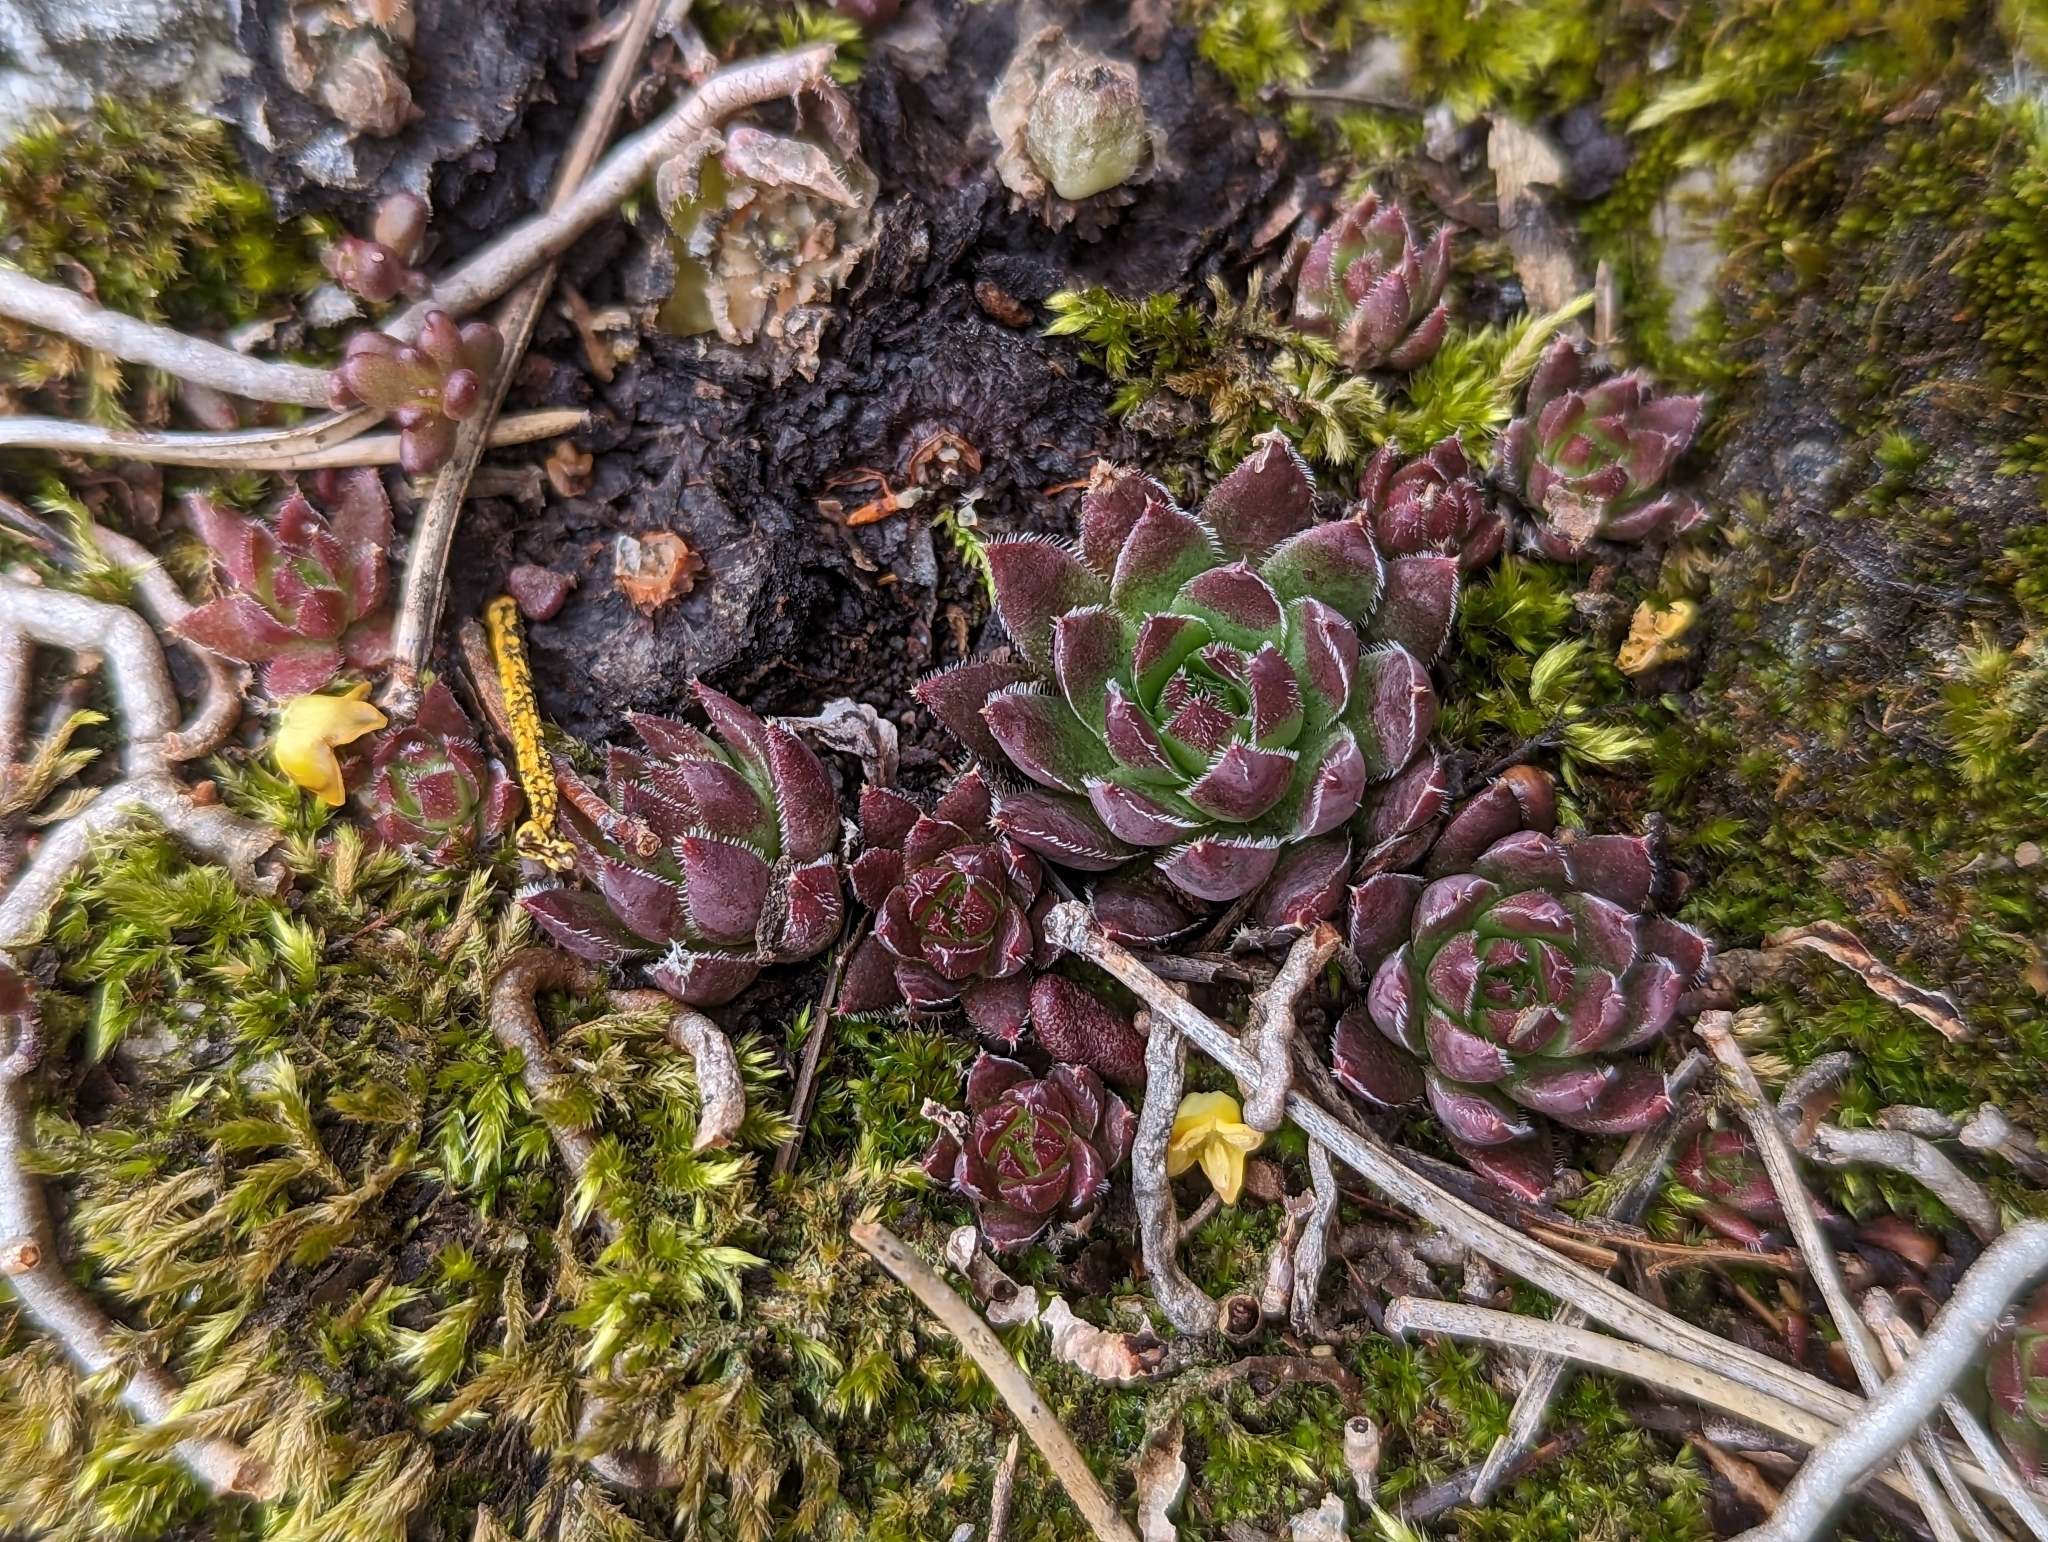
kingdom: Plantae
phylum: Tracheophyta
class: Magnoliopsida
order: Saxifragales
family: Crassulaceae
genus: Sempervivum
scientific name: Sempervivum globiferum
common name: Rolling hen-and-chicks
